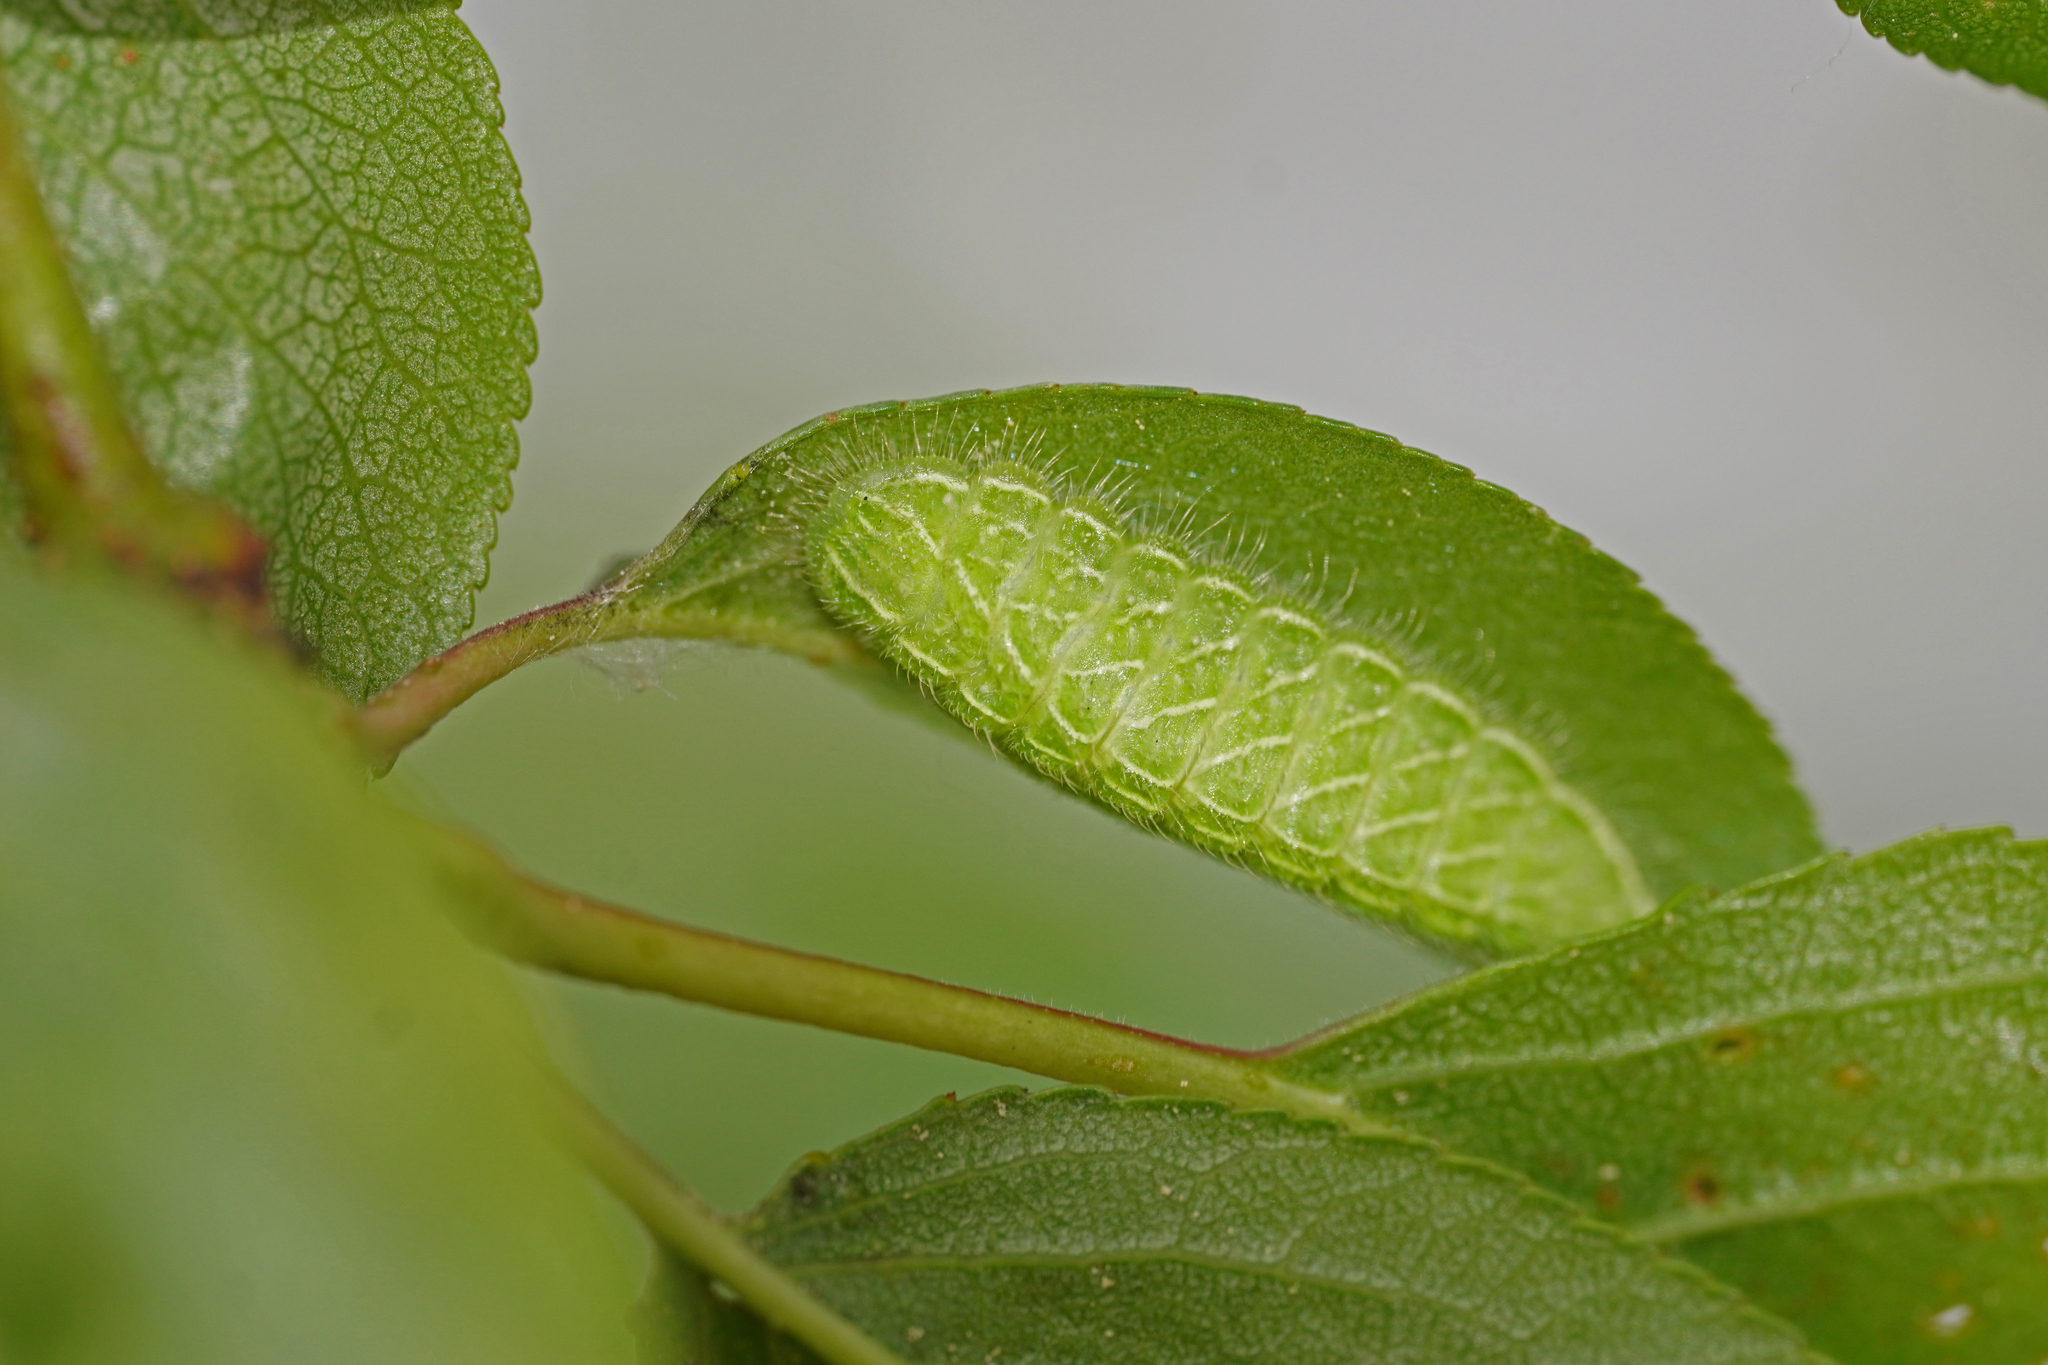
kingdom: Animalia
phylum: Arthropoda
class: Insecta
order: Lepidoptera
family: Lycaenidae
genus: Thecla
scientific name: Thecla betulae
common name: Brown hairstreak
